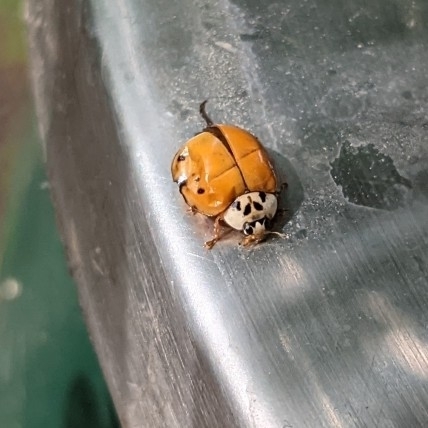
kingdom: Animalia
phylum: Arthropoda
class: Insecta
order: Coleoptera
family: Coccinellidae
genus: Harmonia
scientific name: Harmonia axyridis
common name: Harlequin ladybird
